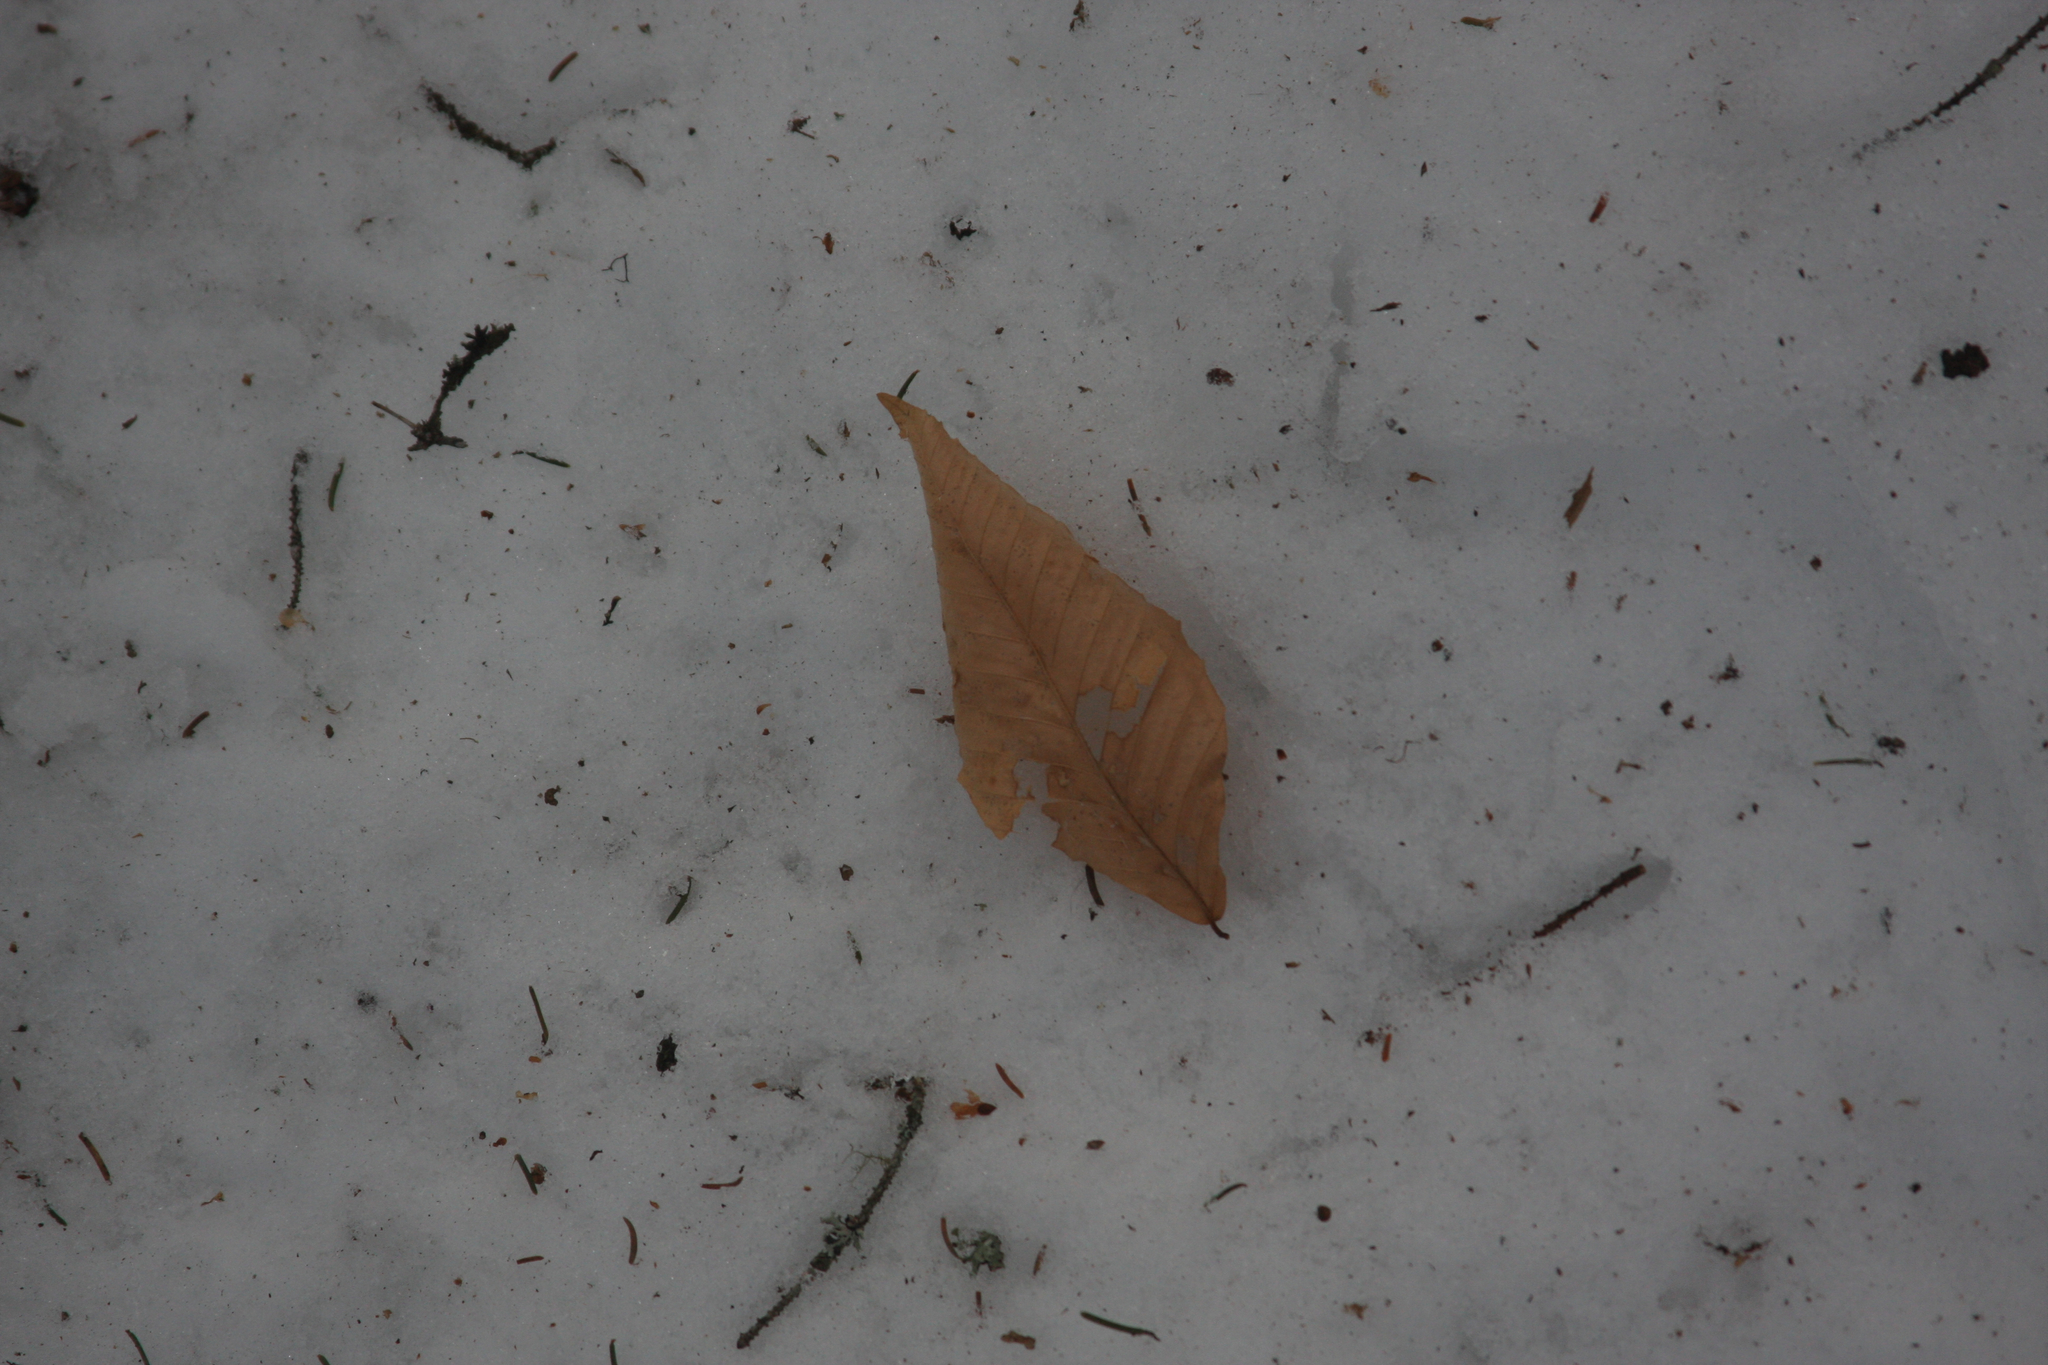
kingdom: Plantae
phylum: Tracheophyta
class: Magnoliopsida
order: Fagales
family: Fagaceae
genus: Fagus
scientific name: Fagus grandifolia
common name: American beech
